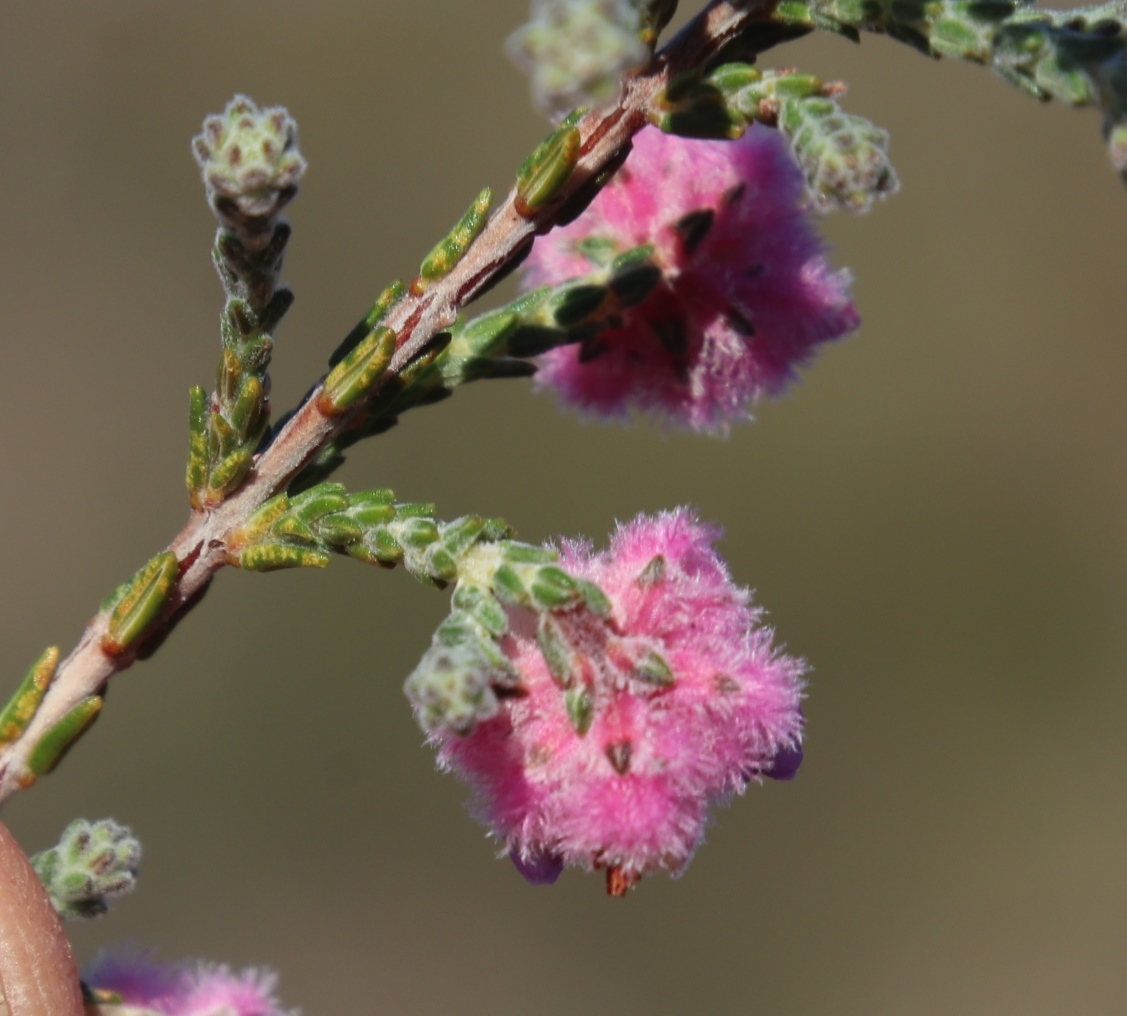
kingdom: Plantae
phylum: Tracheophyta
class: Magnoliopsida
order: Ericales
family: Ericaceae
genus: Erica
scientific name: Erica plumosa
